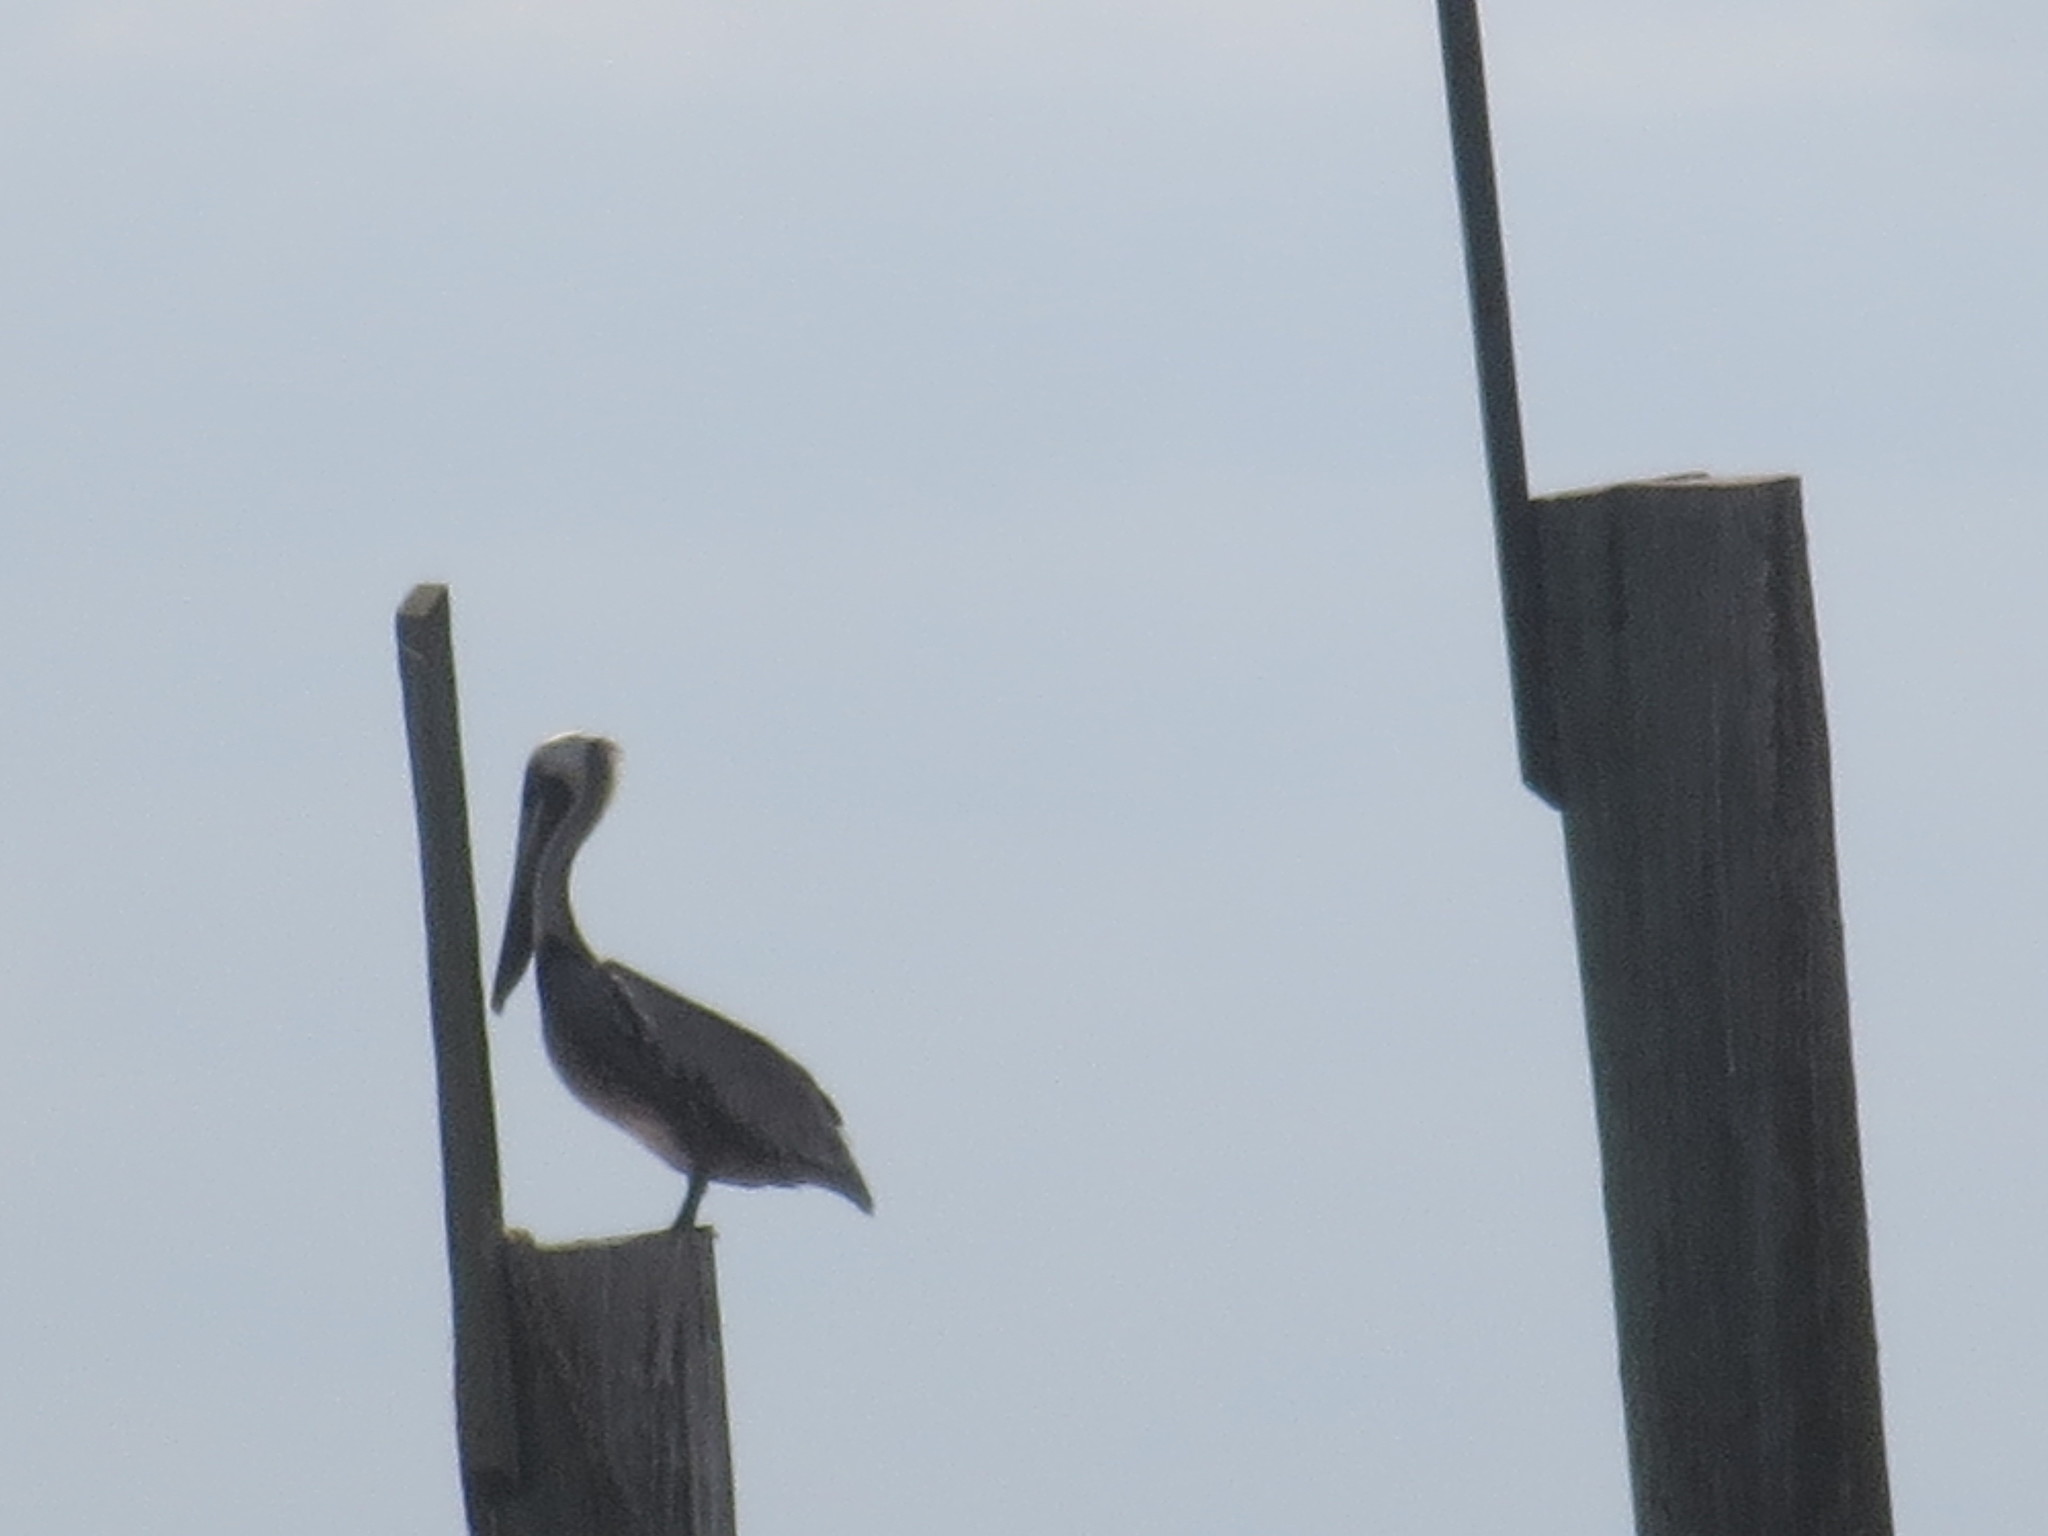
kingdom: Animalia
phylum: Chordata
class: Aves
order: Pelecaniformes
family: Pelecanidae
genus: Pelecanus
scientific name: Pelecanus occidentalis
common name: Brown pelican
